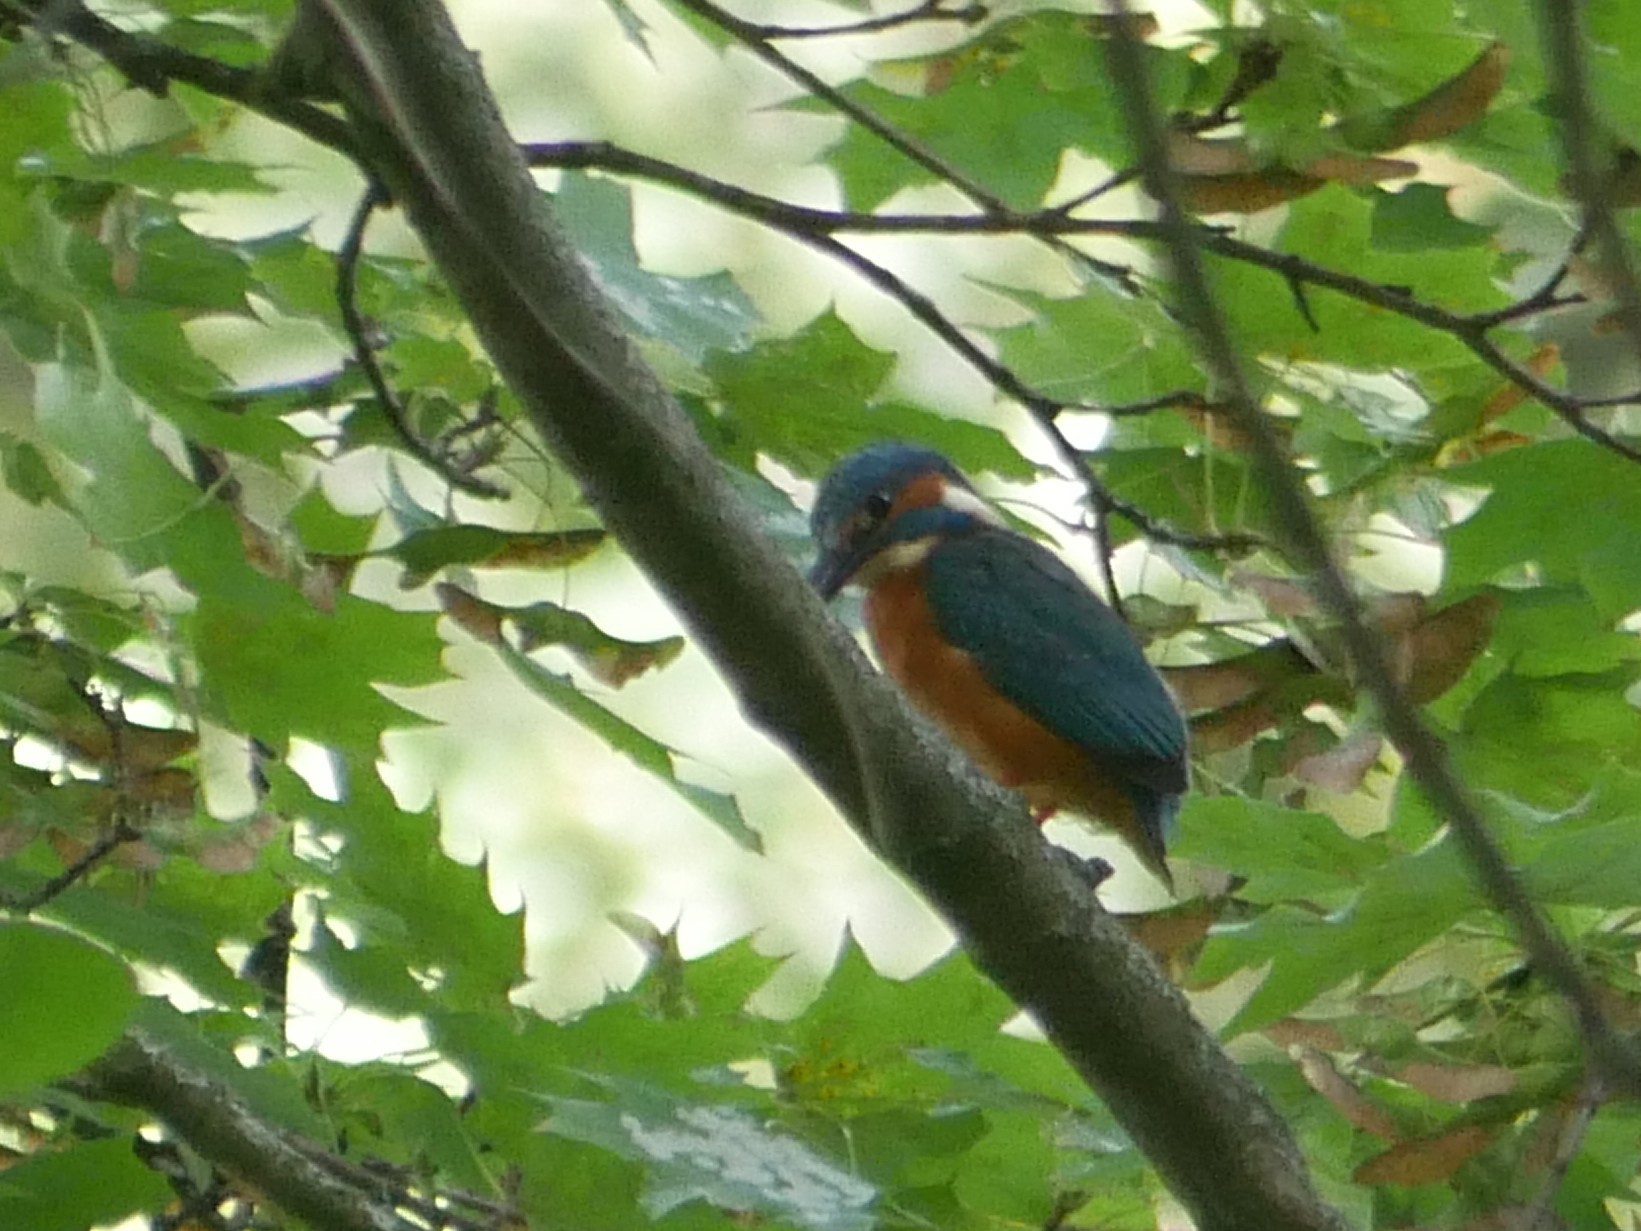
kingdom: Animalia
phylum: Chordata
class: Aves
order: Coraciiformes
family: Alcedinidae
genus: Alcedo
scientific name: Alcedo atthis
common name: Common kingfisher
